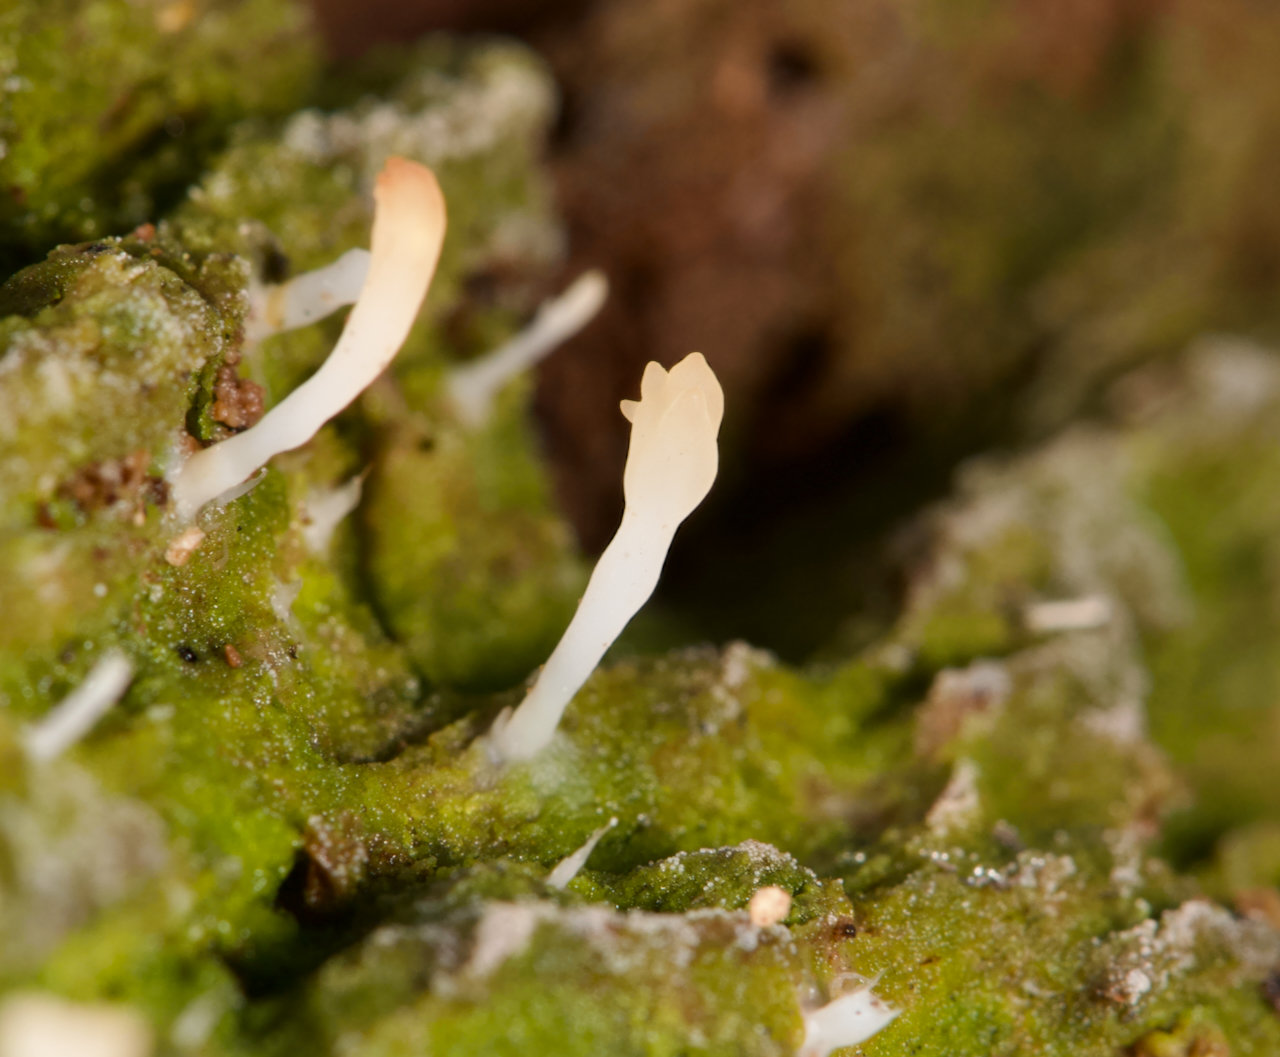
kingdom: Fungi
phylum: Basidiomycota
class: Agaricomycetes
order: Cantharellales
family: Hydnaceae
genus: Multiclavula
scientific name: Multiclavula mucida
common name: White green-algae coral
